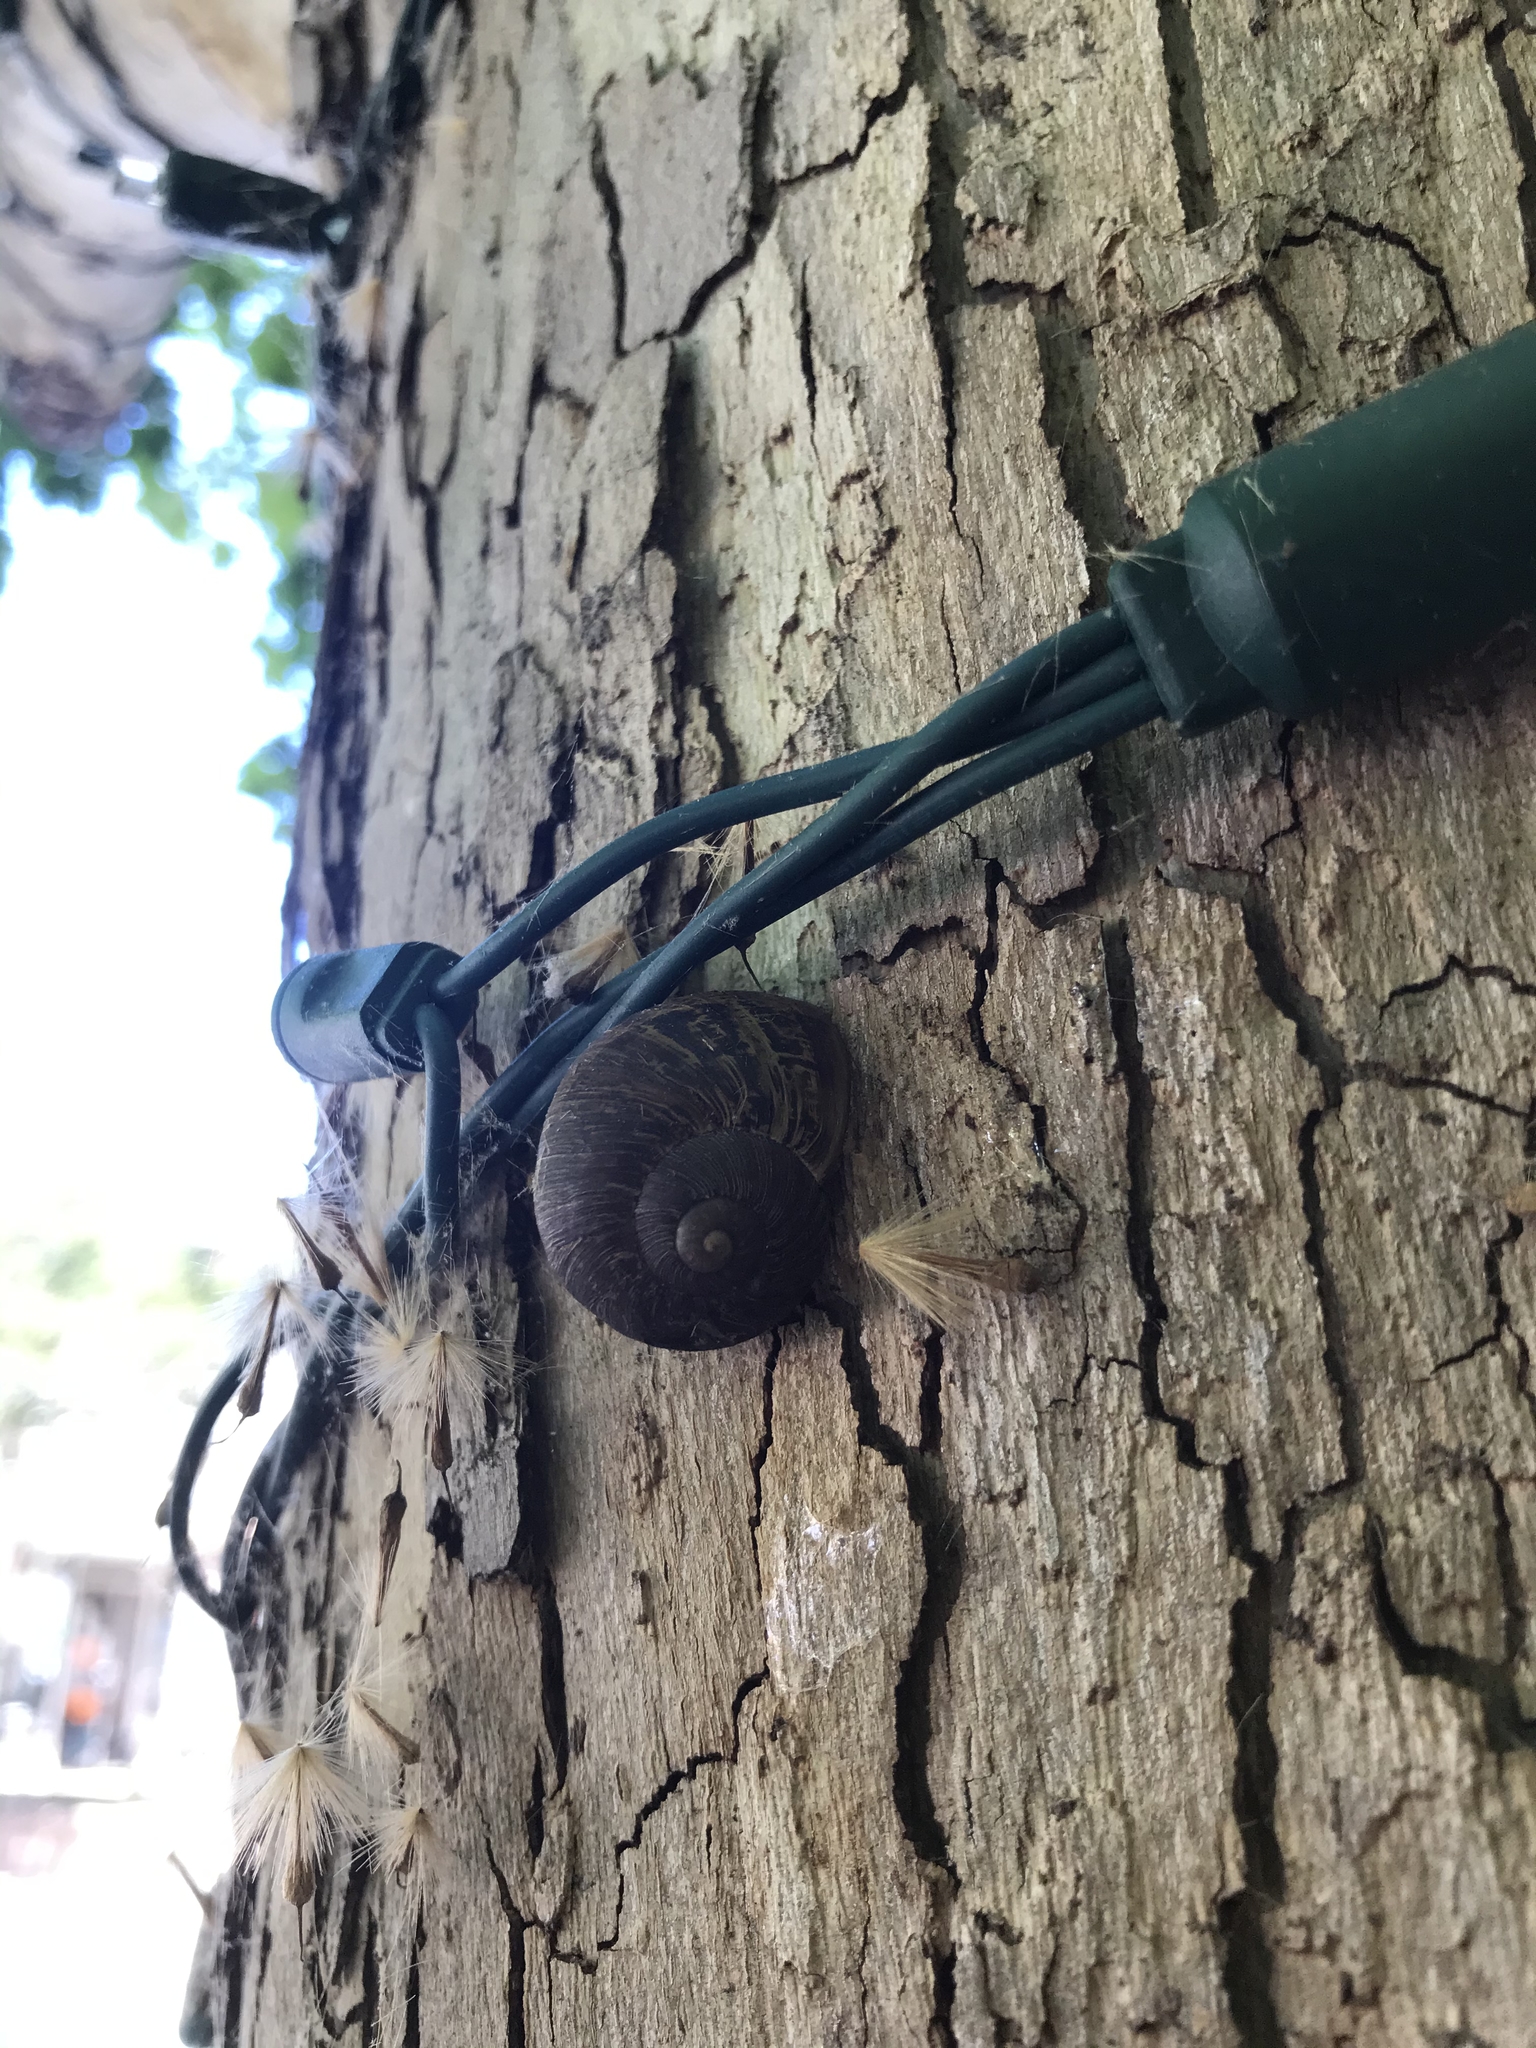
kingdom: Animalia
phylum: Mollusca
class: Gastropoda
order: Stylommatophora
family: Helicidae
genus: Cornu
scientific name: Cornu aspersum
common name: Brown garden snail
